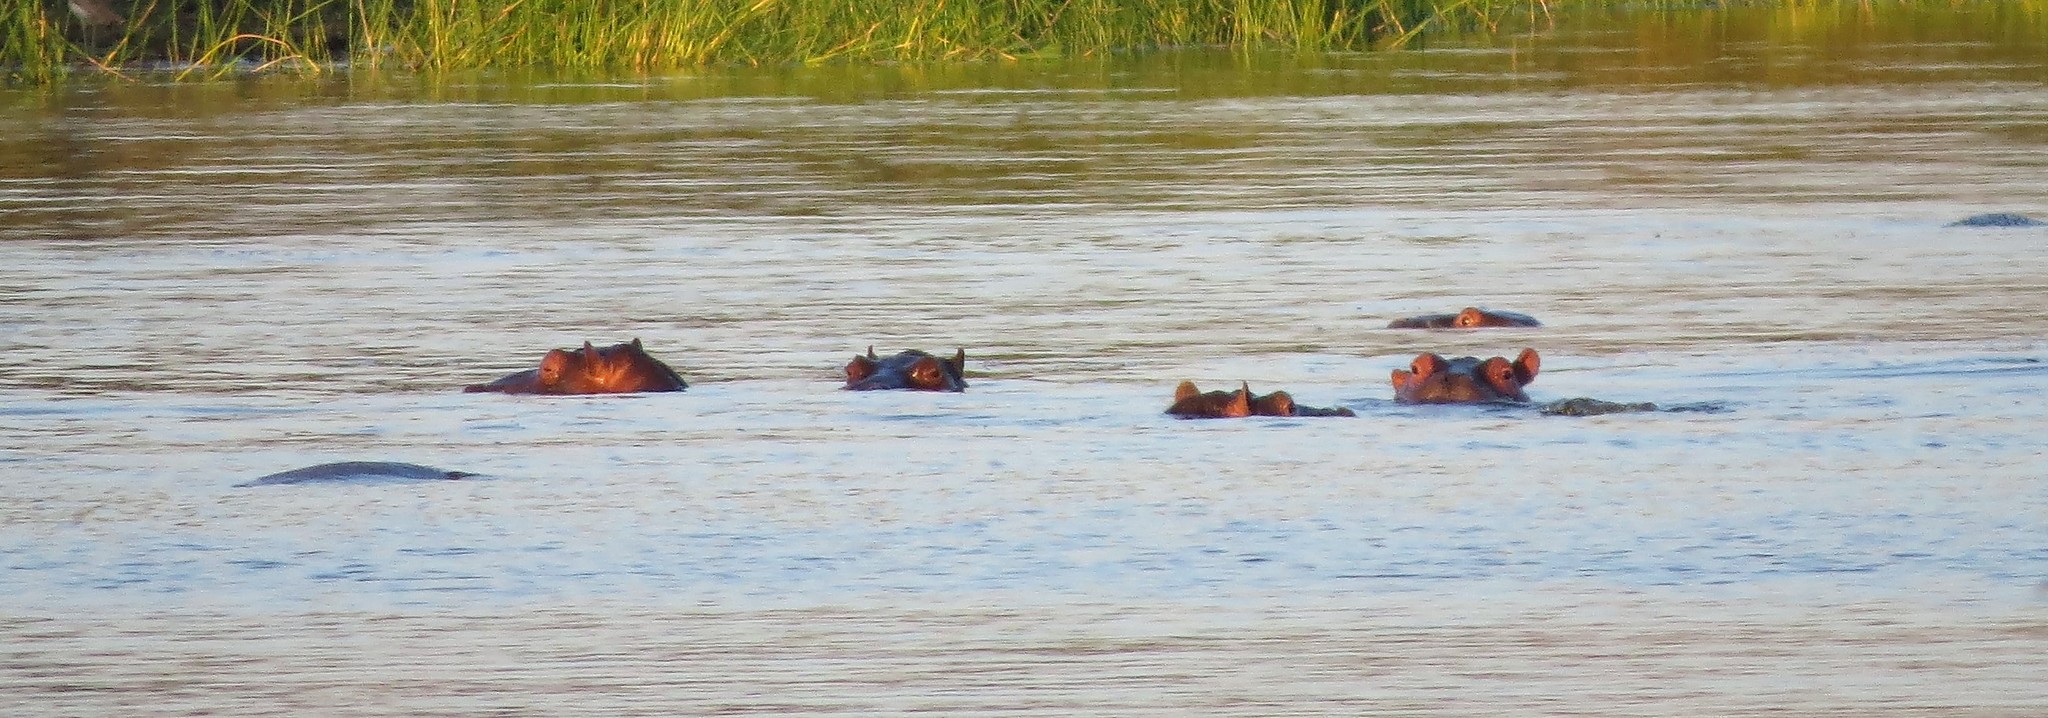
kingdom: Animalia
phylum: Chordata
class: Mammalia
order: Artiodactyla
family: Hippopotamidae
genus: Hippopotamus
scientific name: Hippopotamus amphibius
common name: Common hippopotamus
